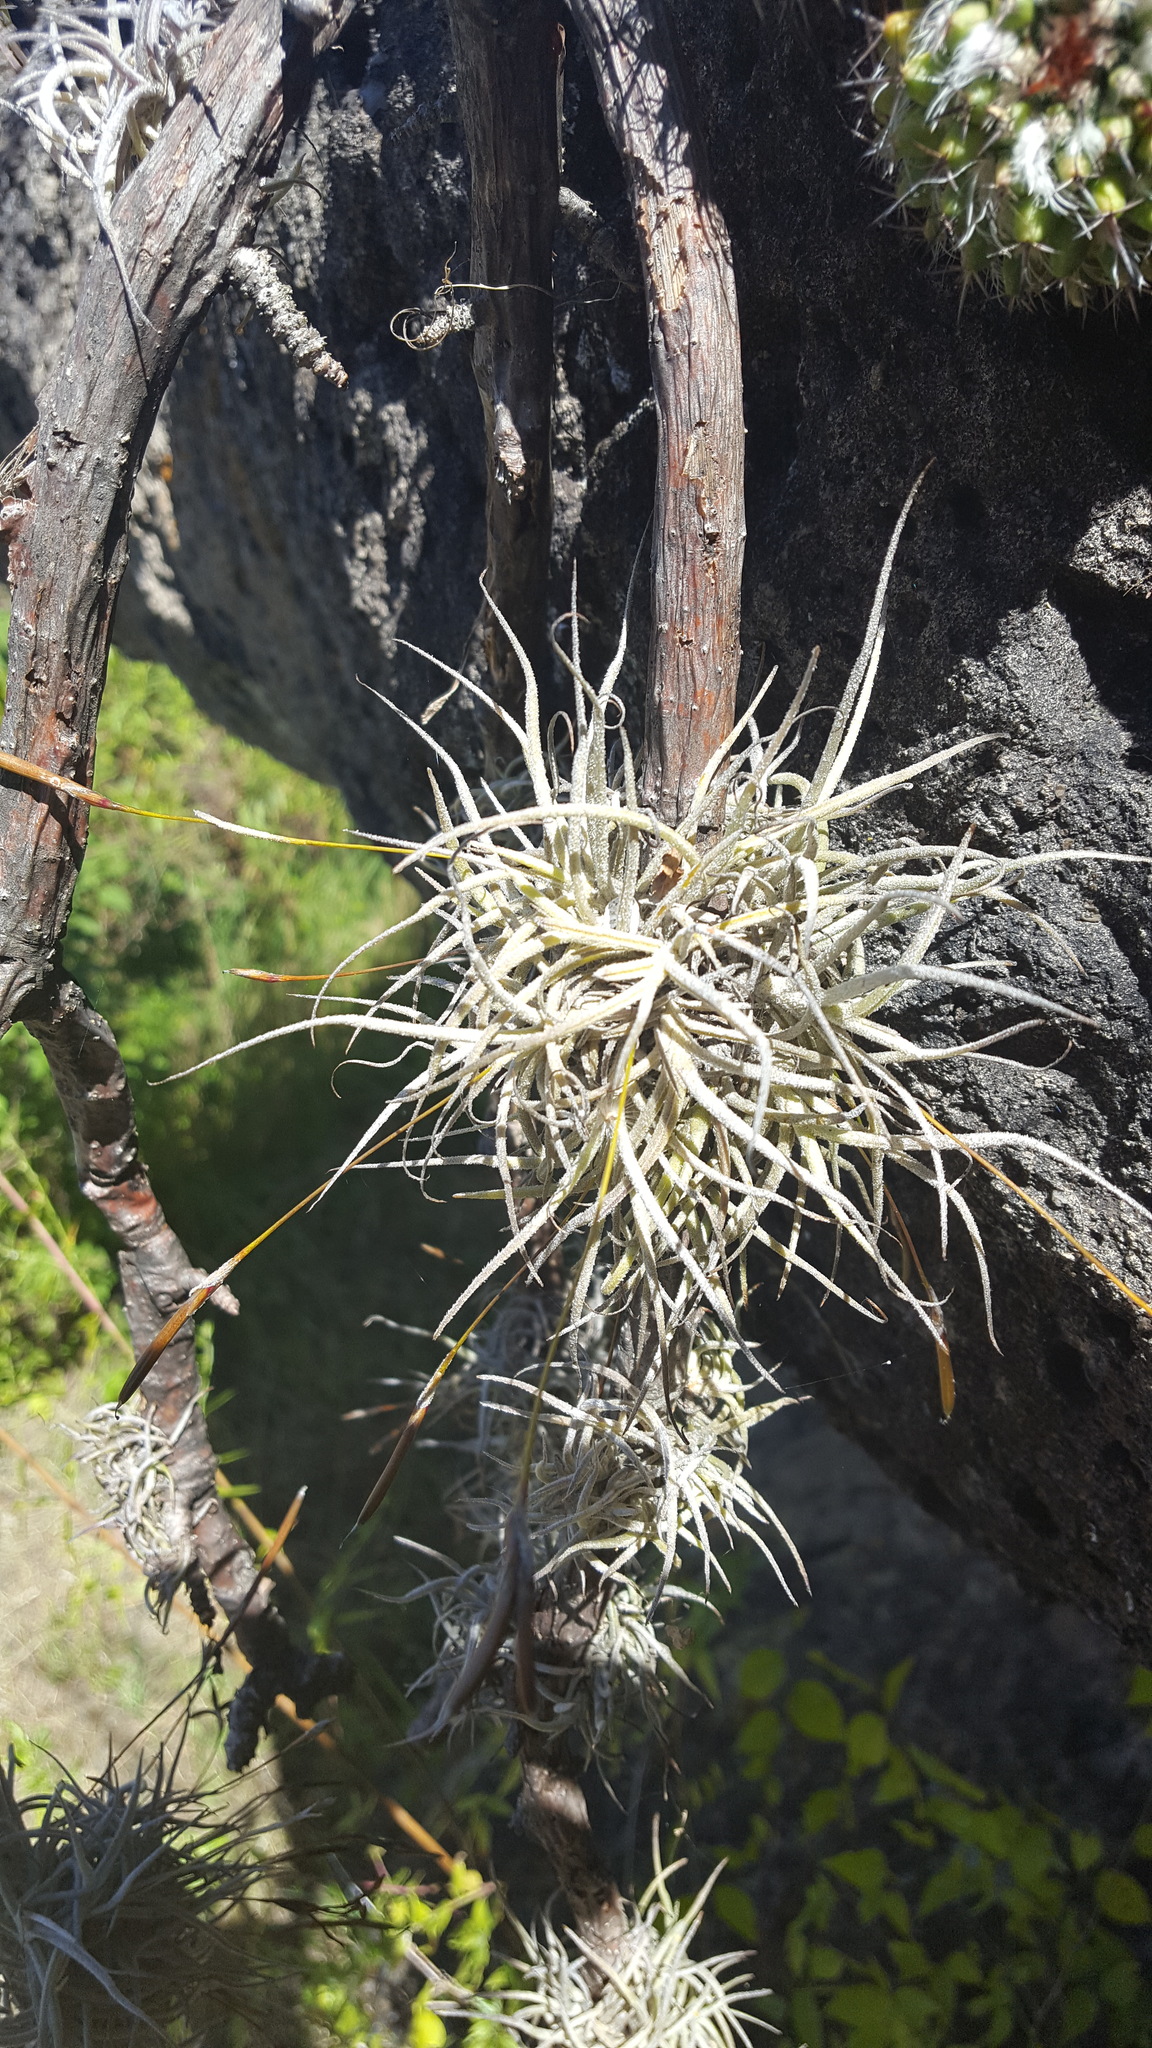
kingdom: Plantae
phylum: Tracheophyta
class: Liliopsida
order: Poales
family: Bromeliaceae
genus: Tillandsia
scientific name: Tillandsia recurvata
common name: Small ballmoss
